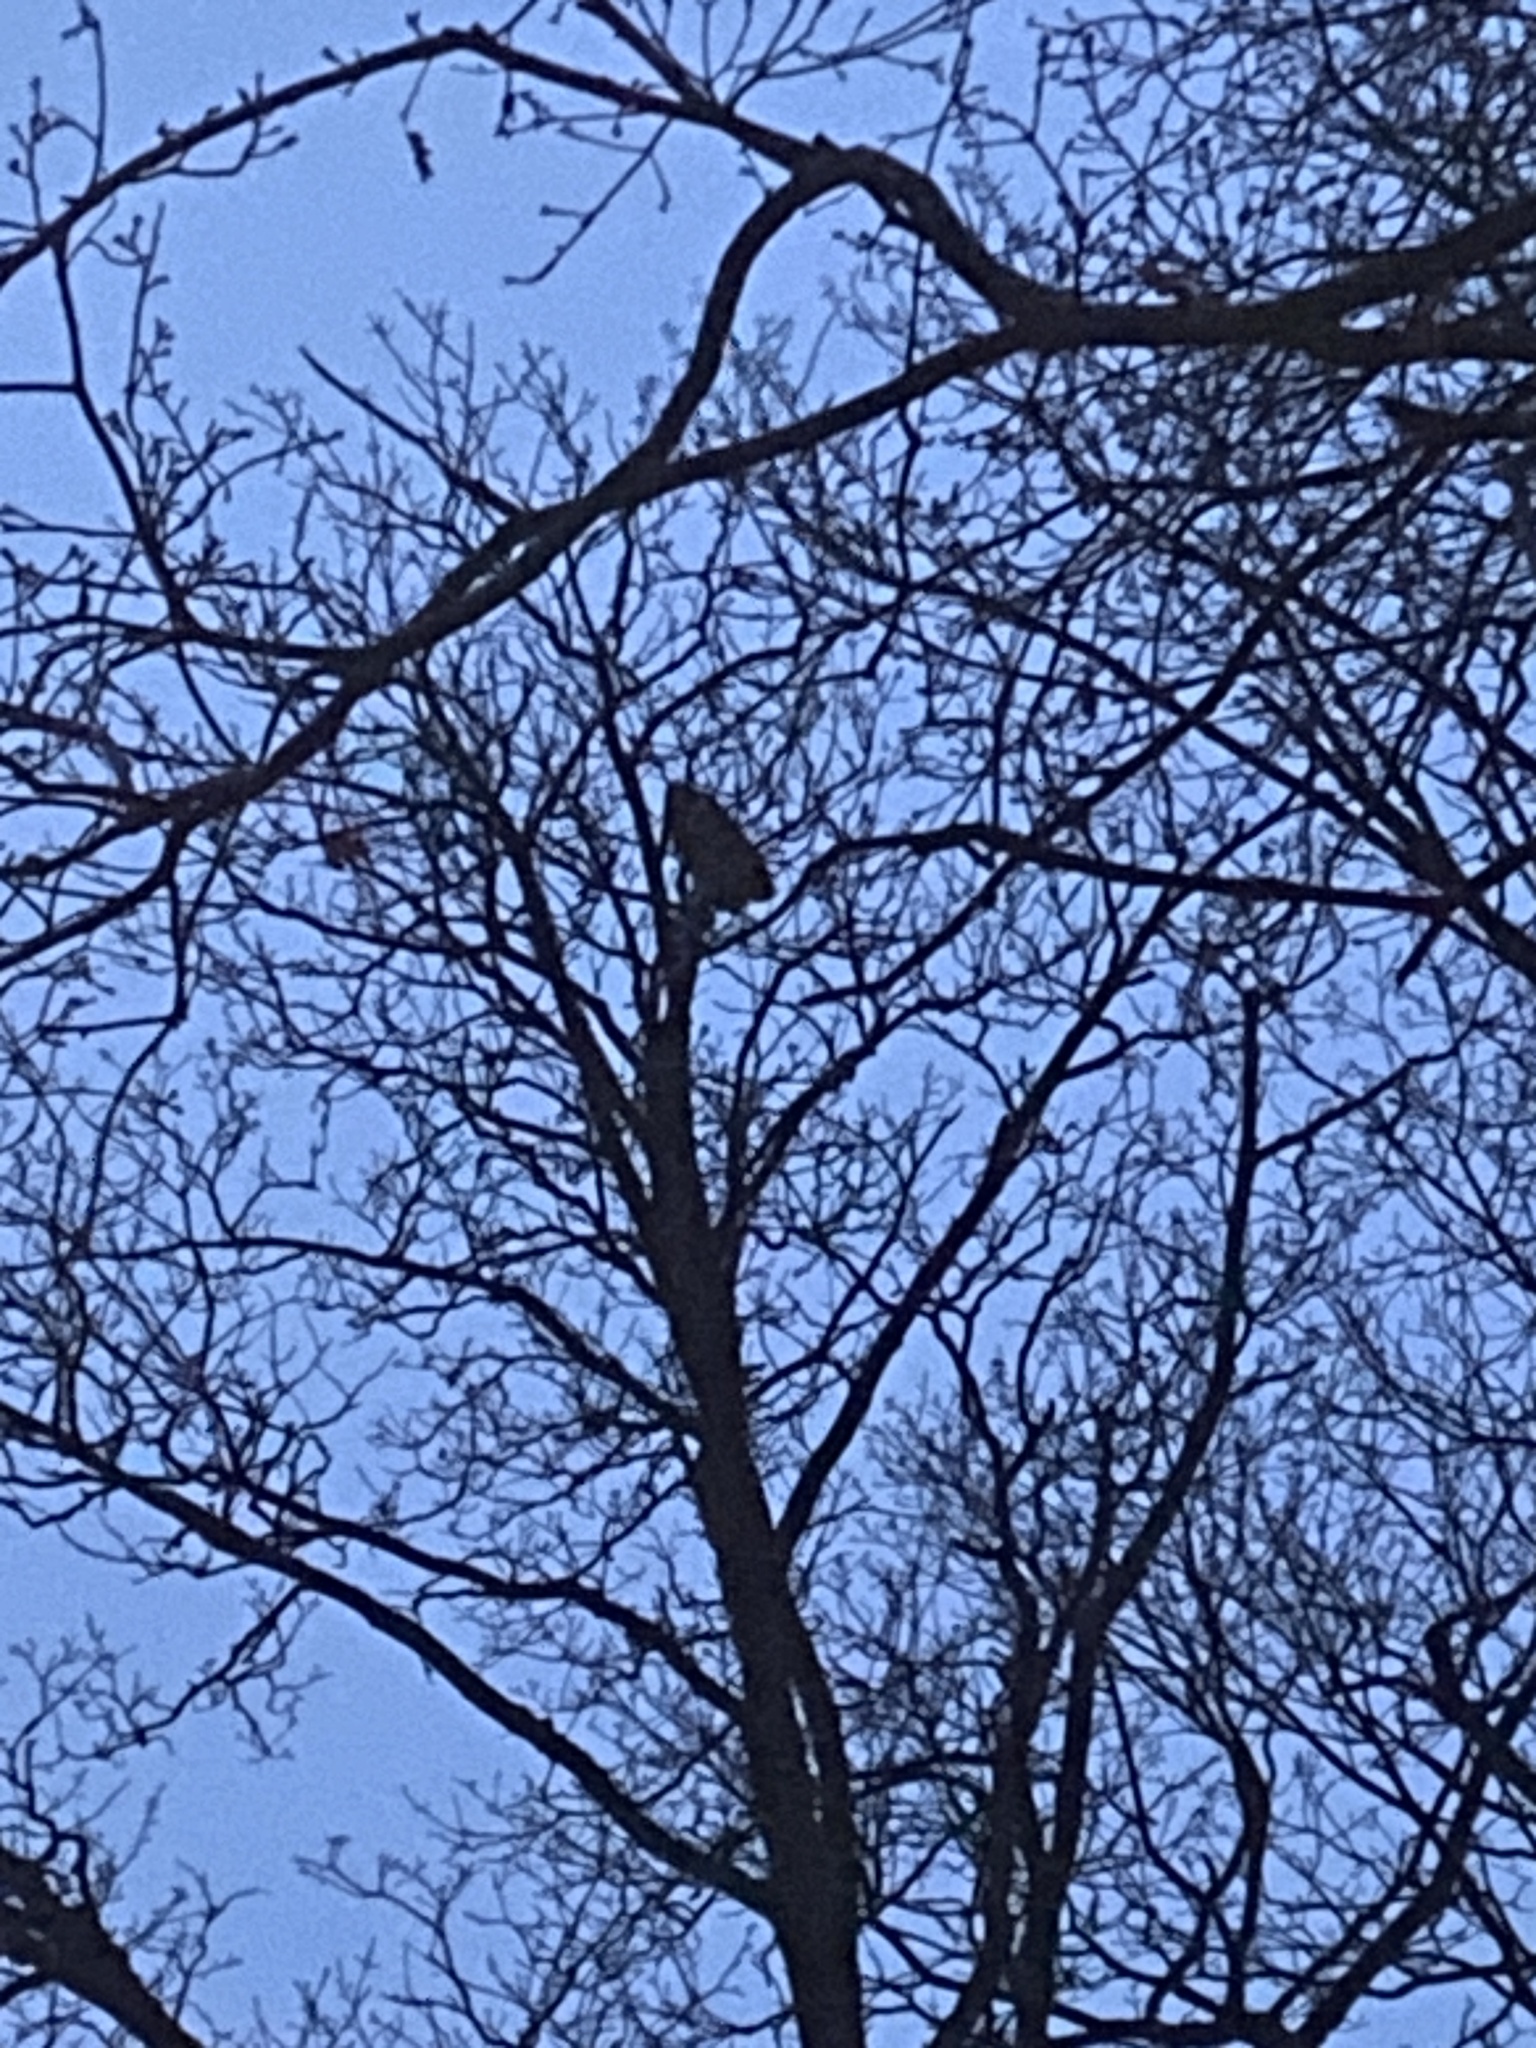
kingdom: Animalia
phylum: Chordata
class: Aves
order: Strigiformes
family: Strigidae
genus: Bubo
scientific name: Bubo bubo
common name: Eurasian eagle-owl
